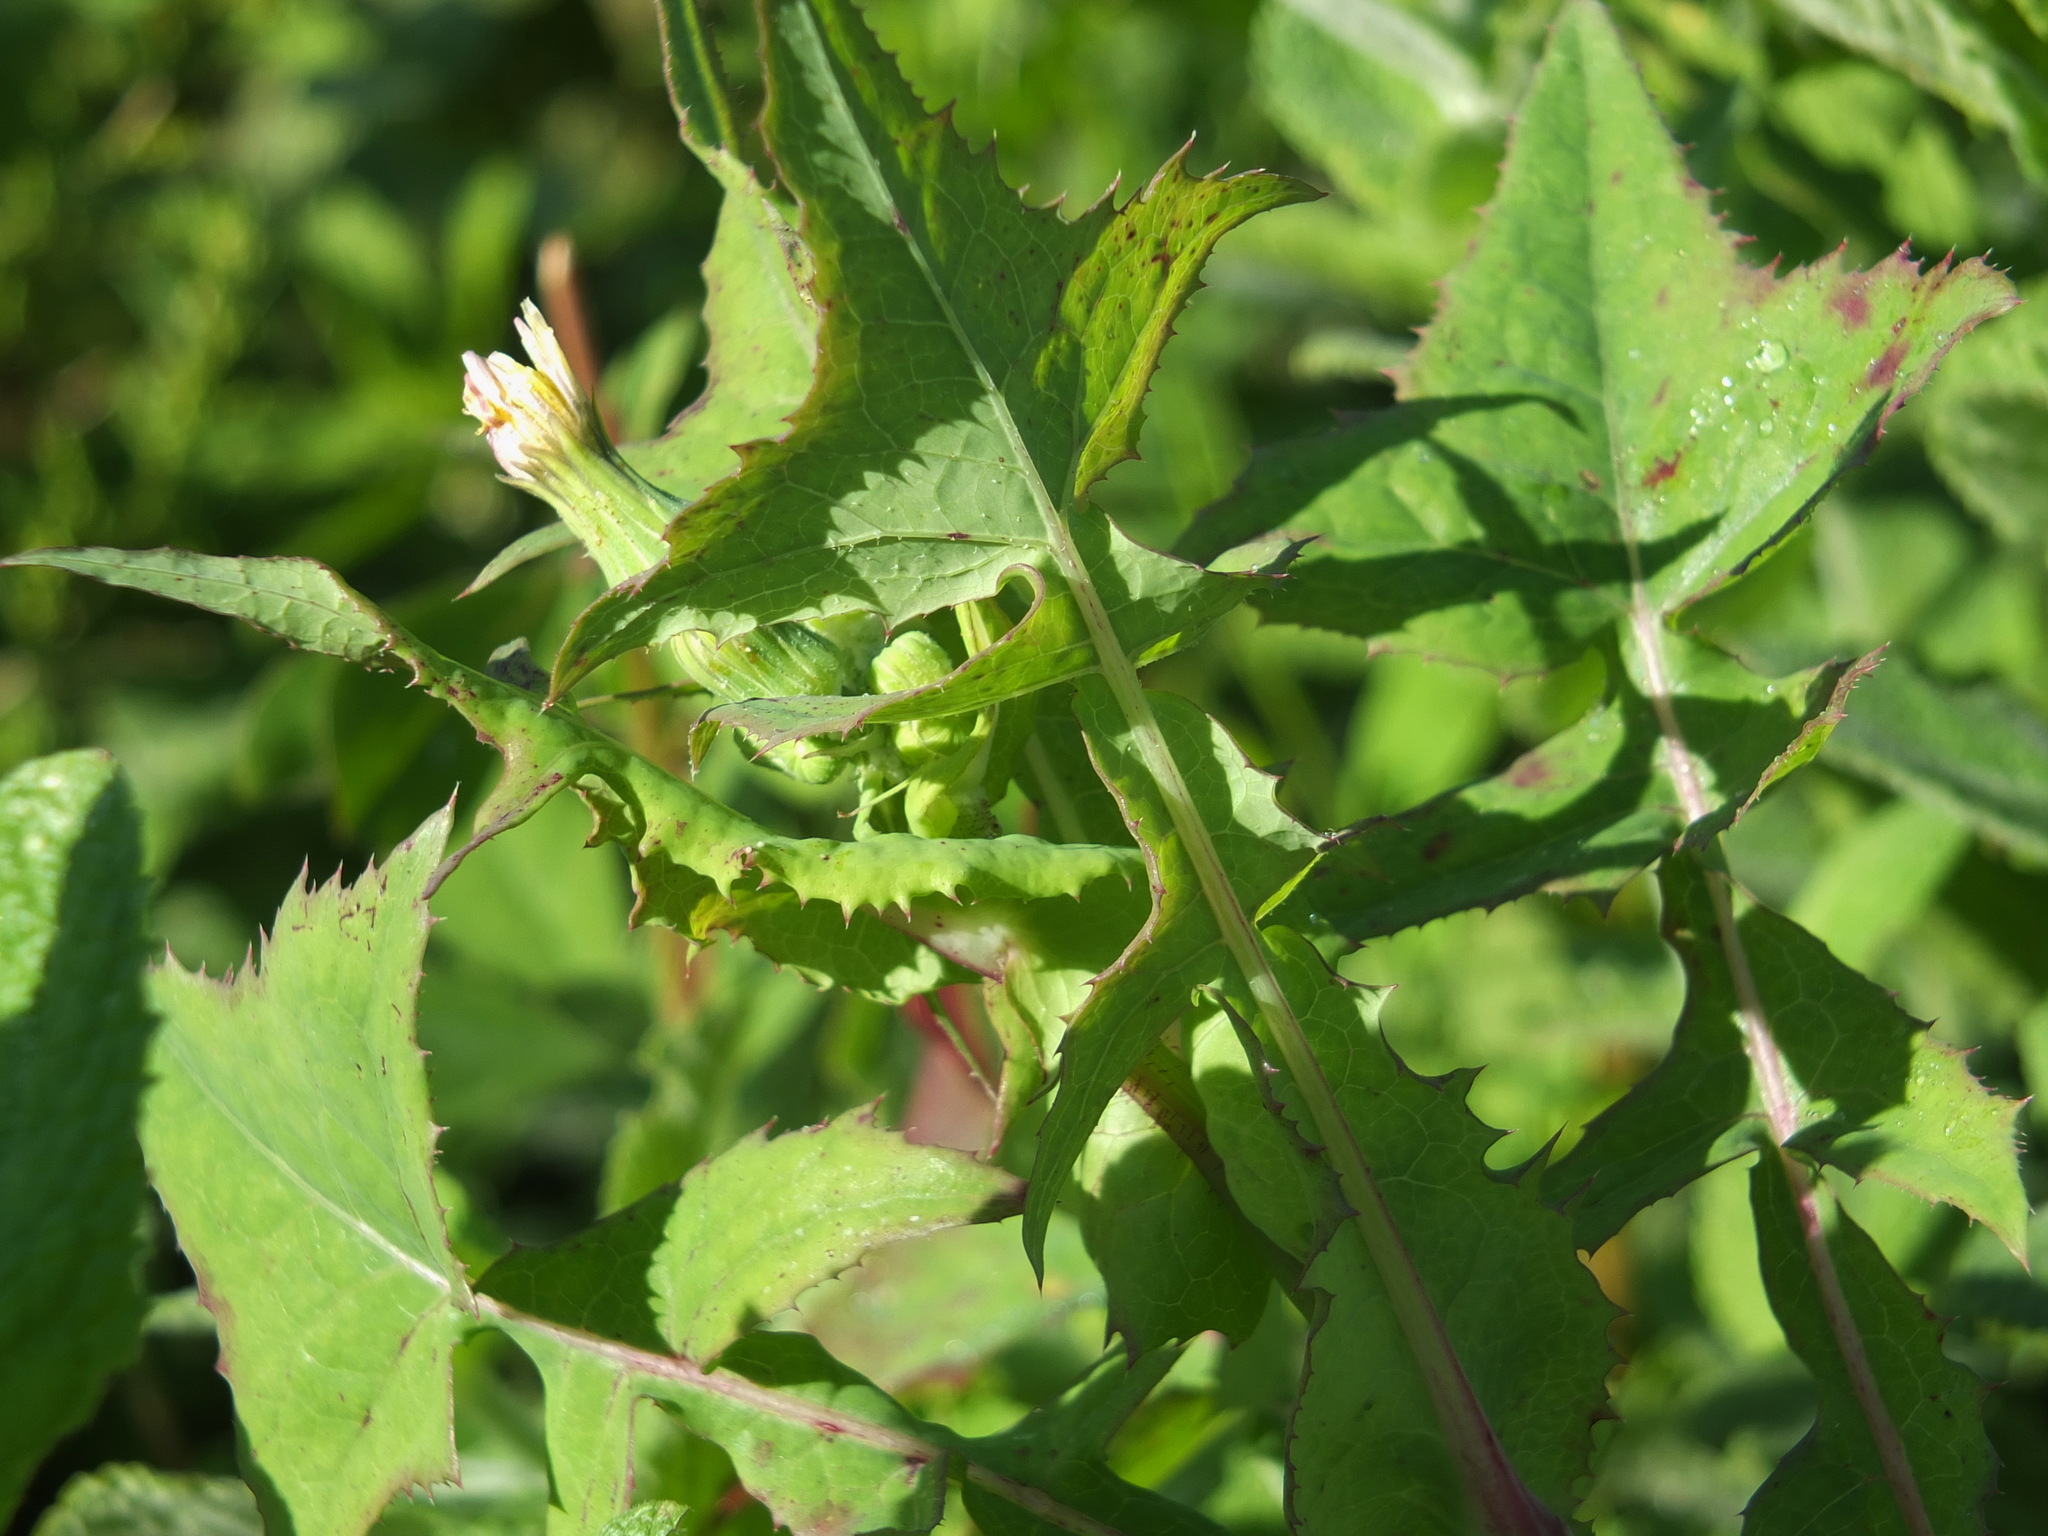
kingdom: Plantae
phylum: Tracheophyta
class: Magnoliopsida
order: Asterales
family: Asteraceae
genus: Sonchus
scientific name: Sonchus oleraceus
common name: Common sowthistle
